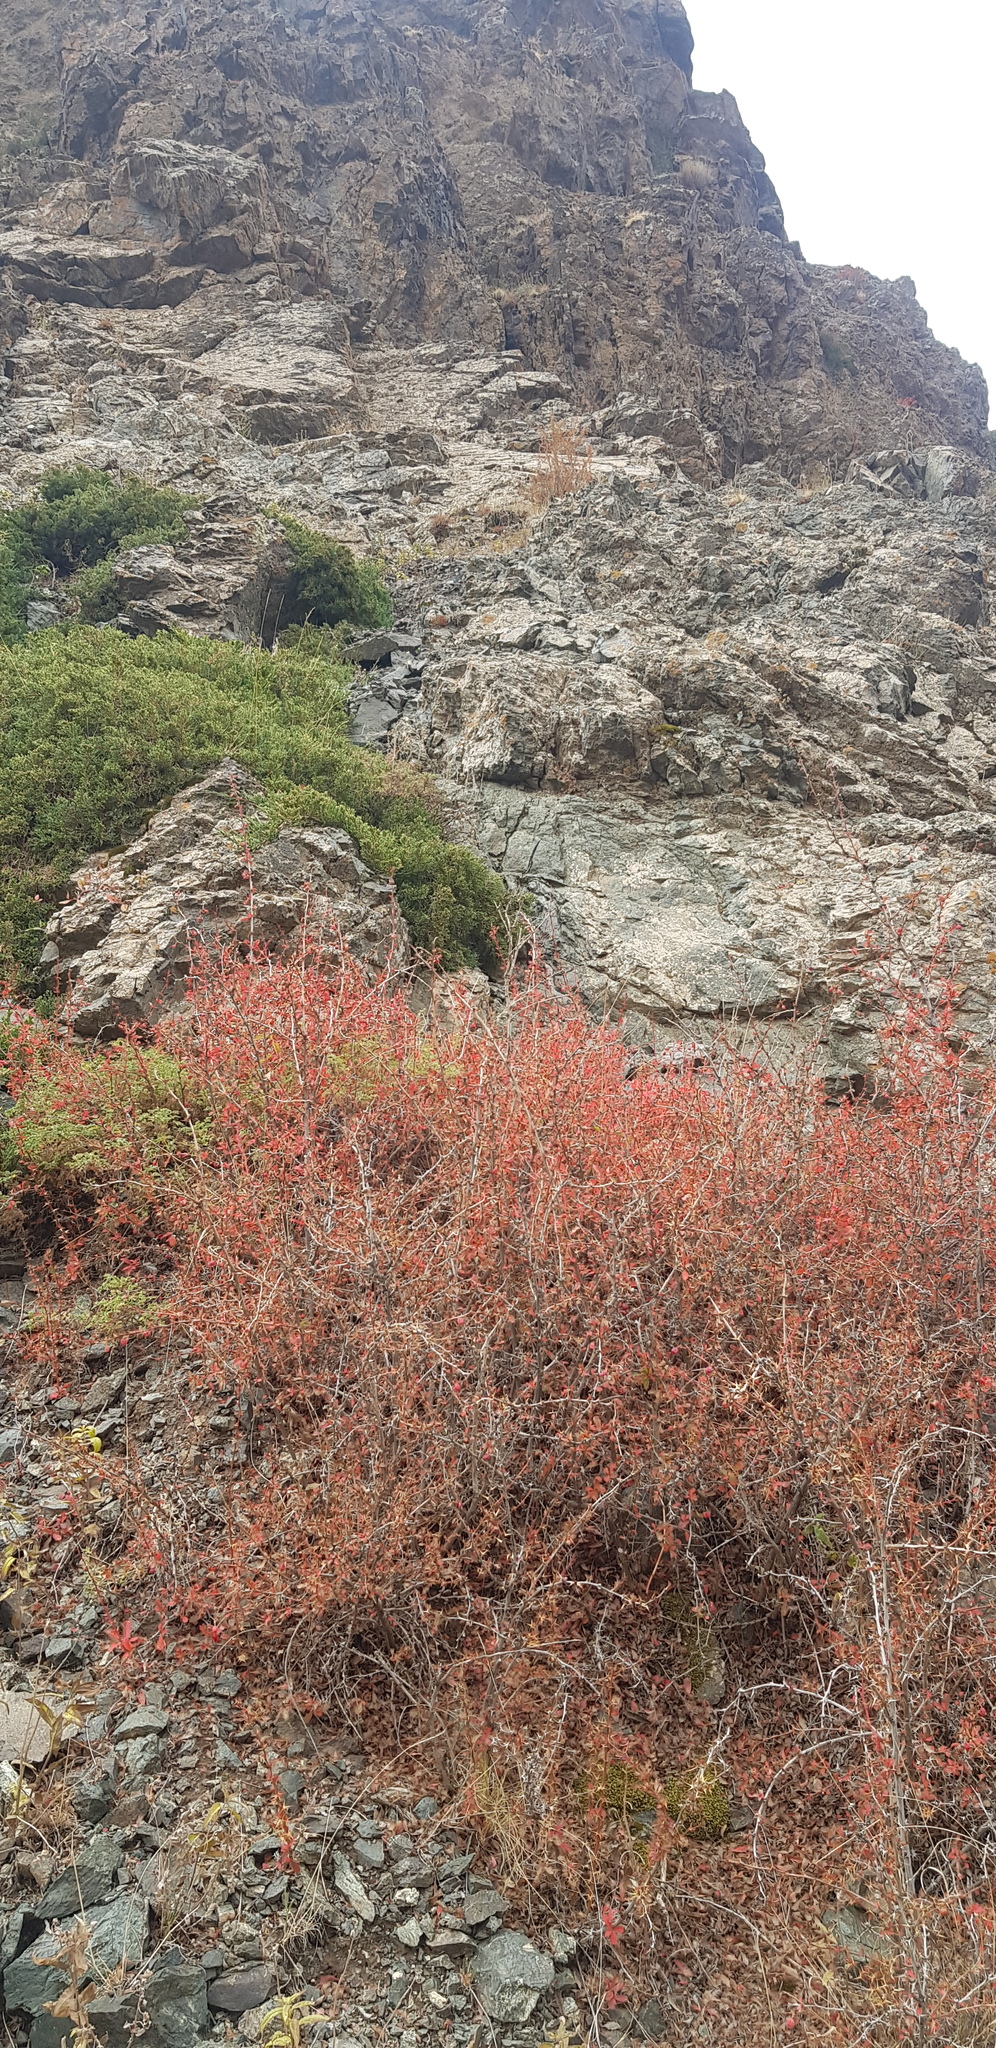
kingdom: Plantae
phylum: Tracheophyta
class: Magnoliopsida
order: Ranunculales
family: Berberidaceae
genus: Berberis
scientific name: Berberis sibirica
